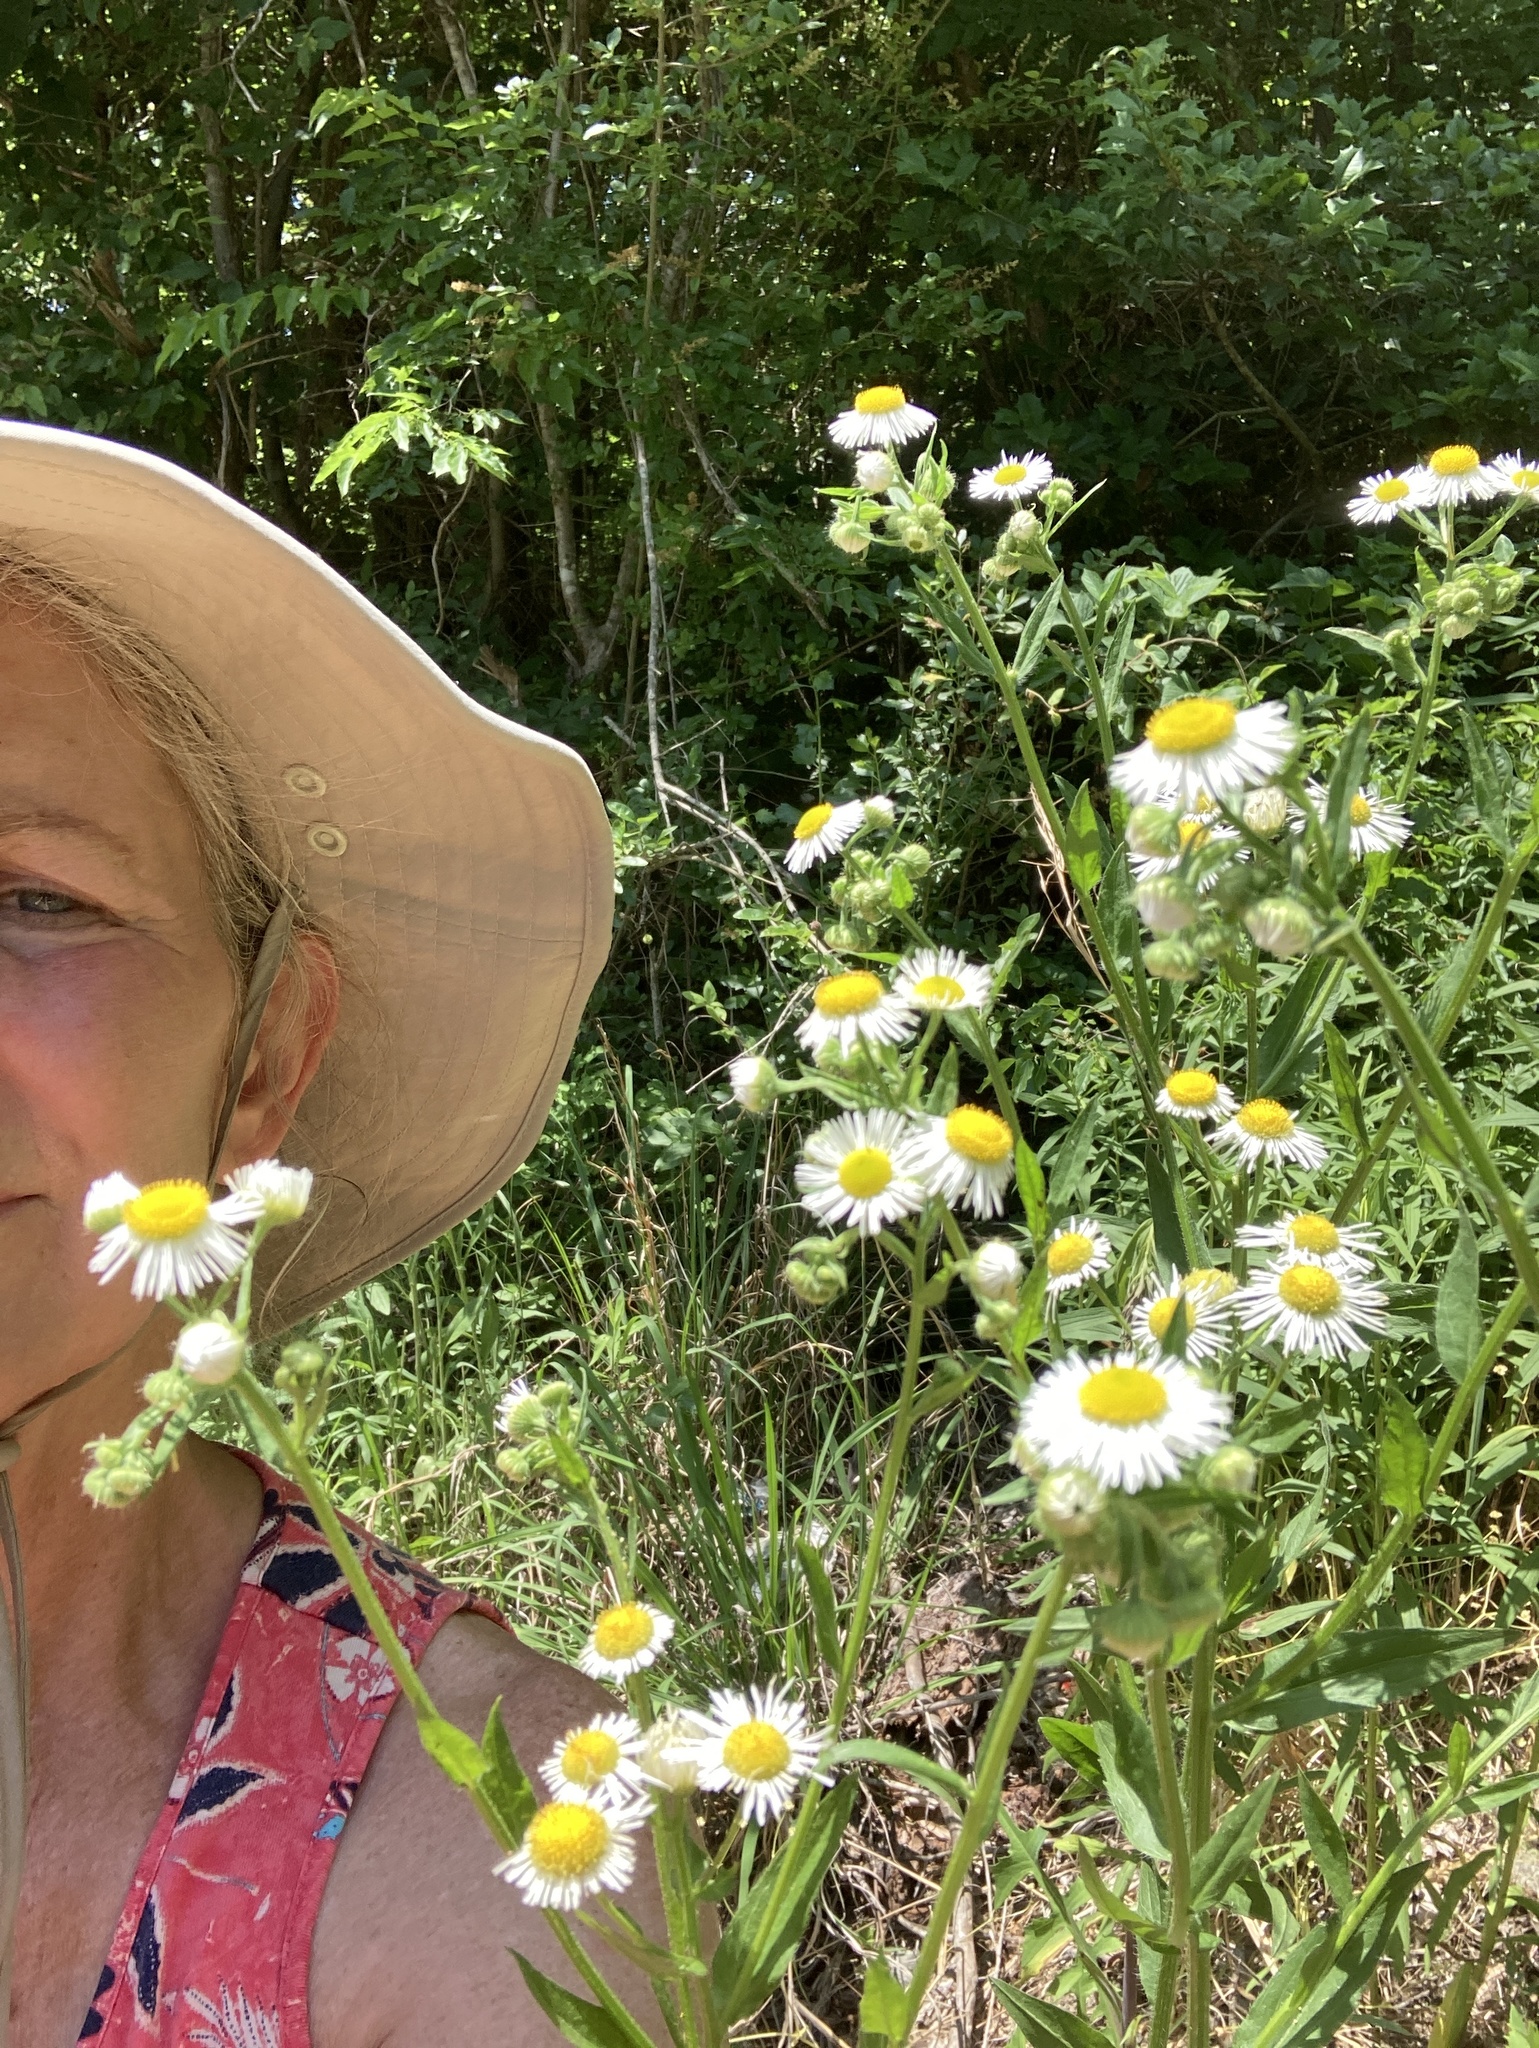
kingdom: Plantae
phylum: Tracheophyta
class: Magnoliopsida
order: Asterales
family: Asteraceae
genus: Erigeron
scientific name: Erigeron annuus
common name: Tall fleabane
